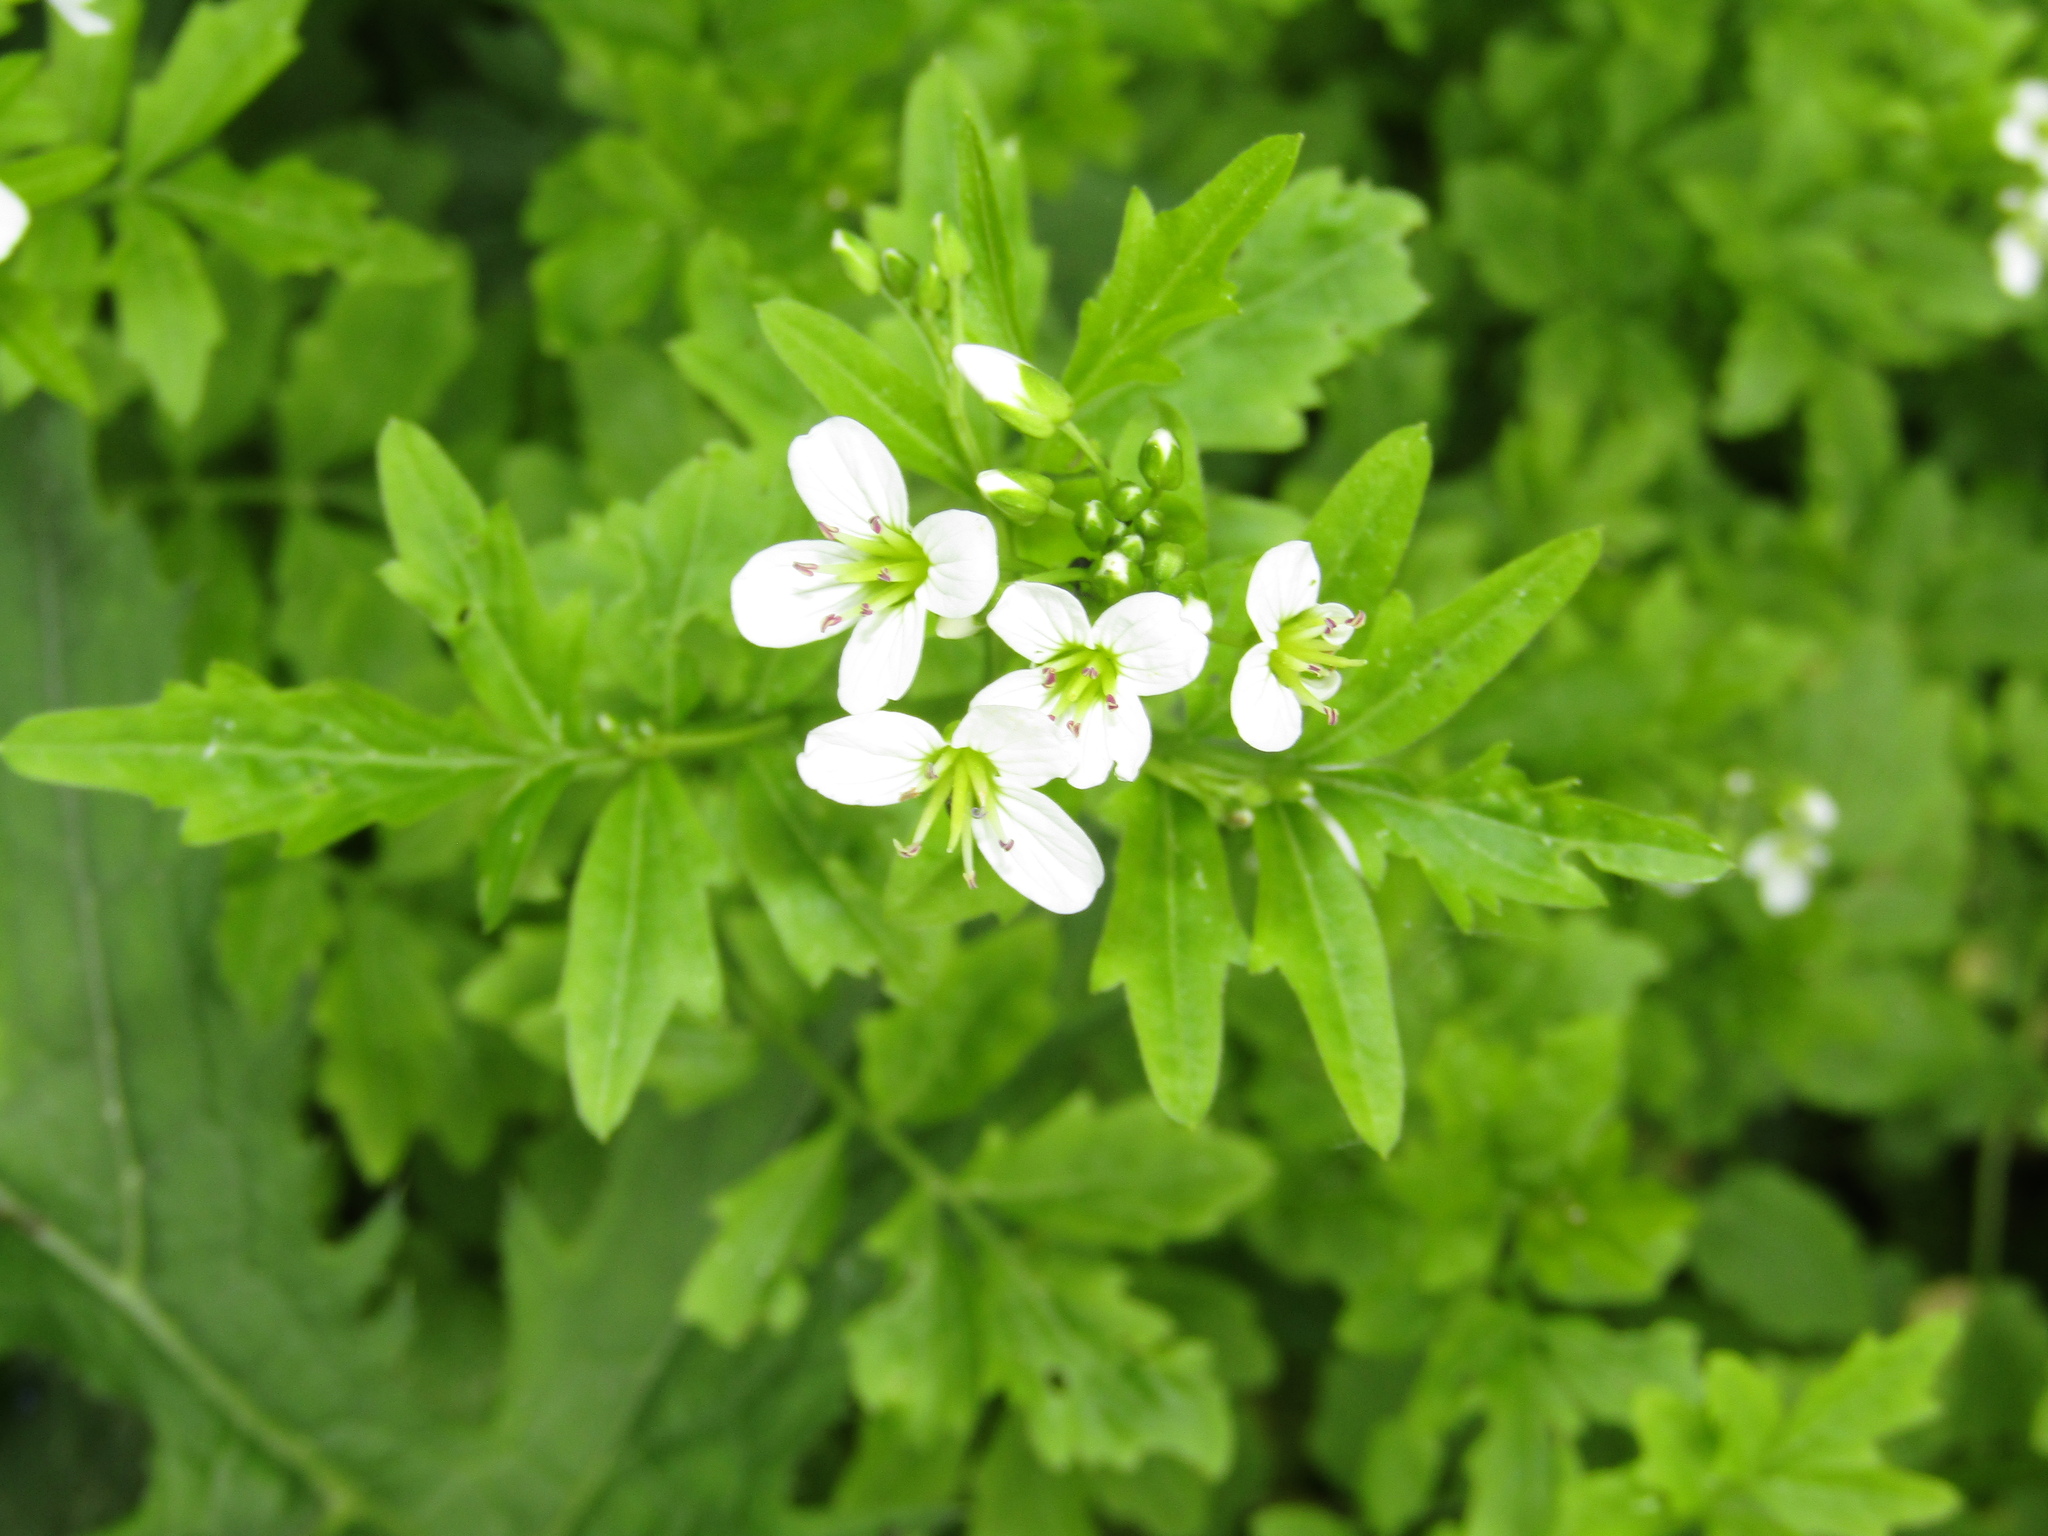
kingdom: Plantae
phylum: Tracheophyta
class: Magnoliopsida
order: Brassicales
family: Brassicaceae
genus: Cardamine
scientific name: Cardamine amara
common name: Large bitter-cress
